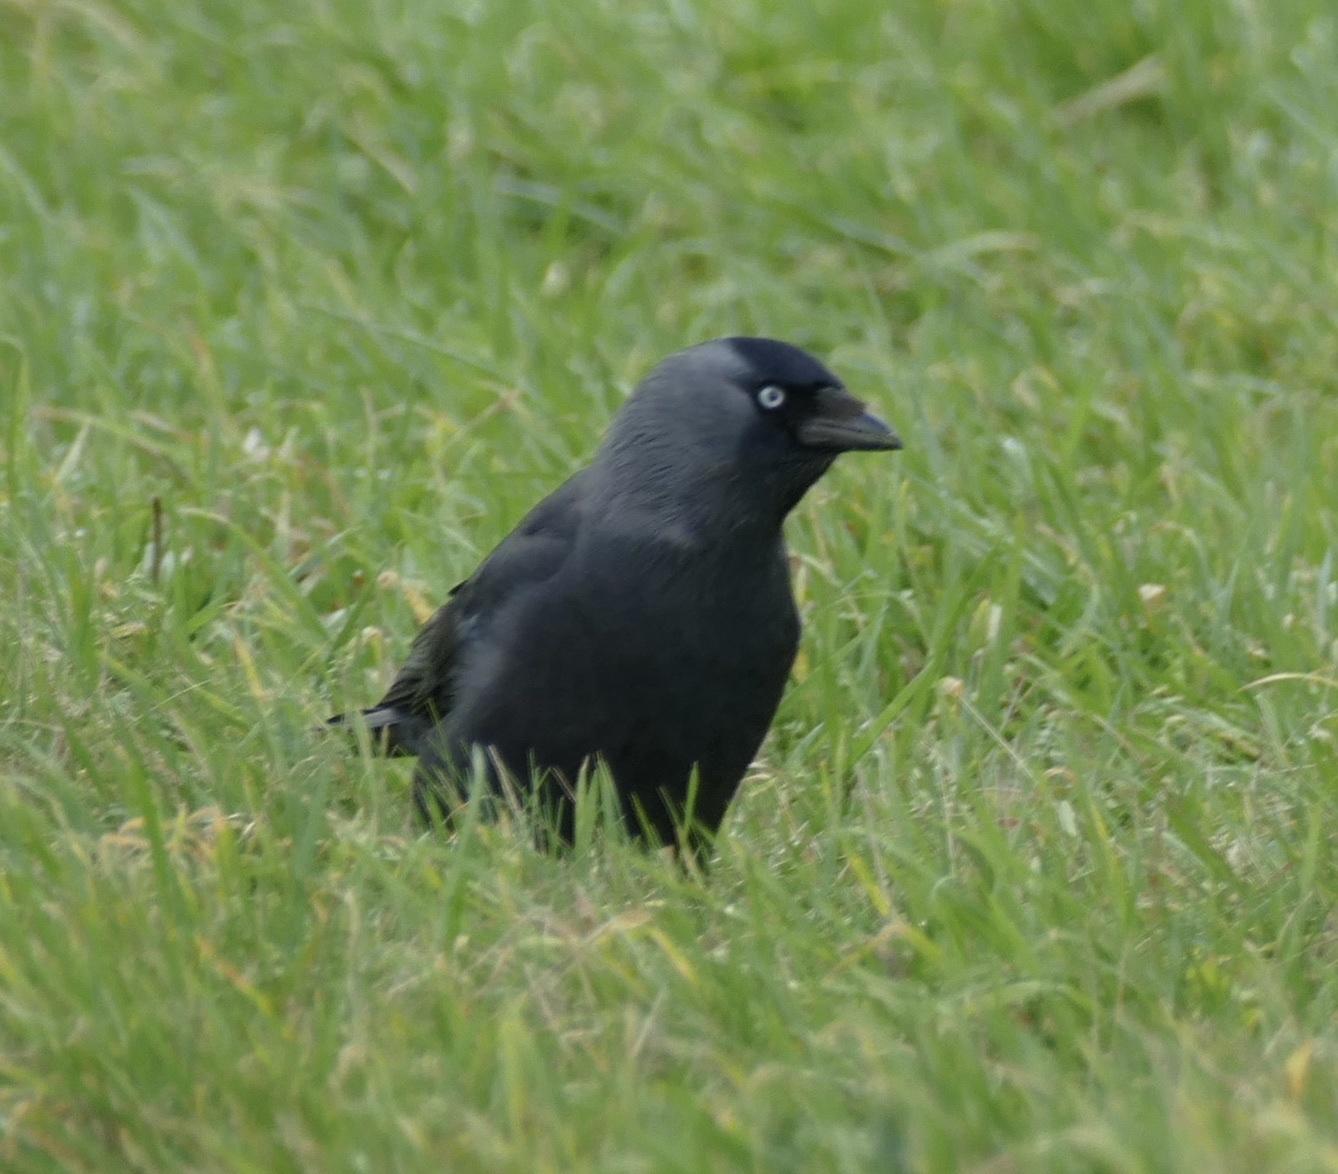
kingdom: Animalia
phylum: Chordata
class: Aves
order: Passeriformes
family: Corvidae
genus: Coloeus
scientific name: Coloeus monedula
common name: Western jackdaw
